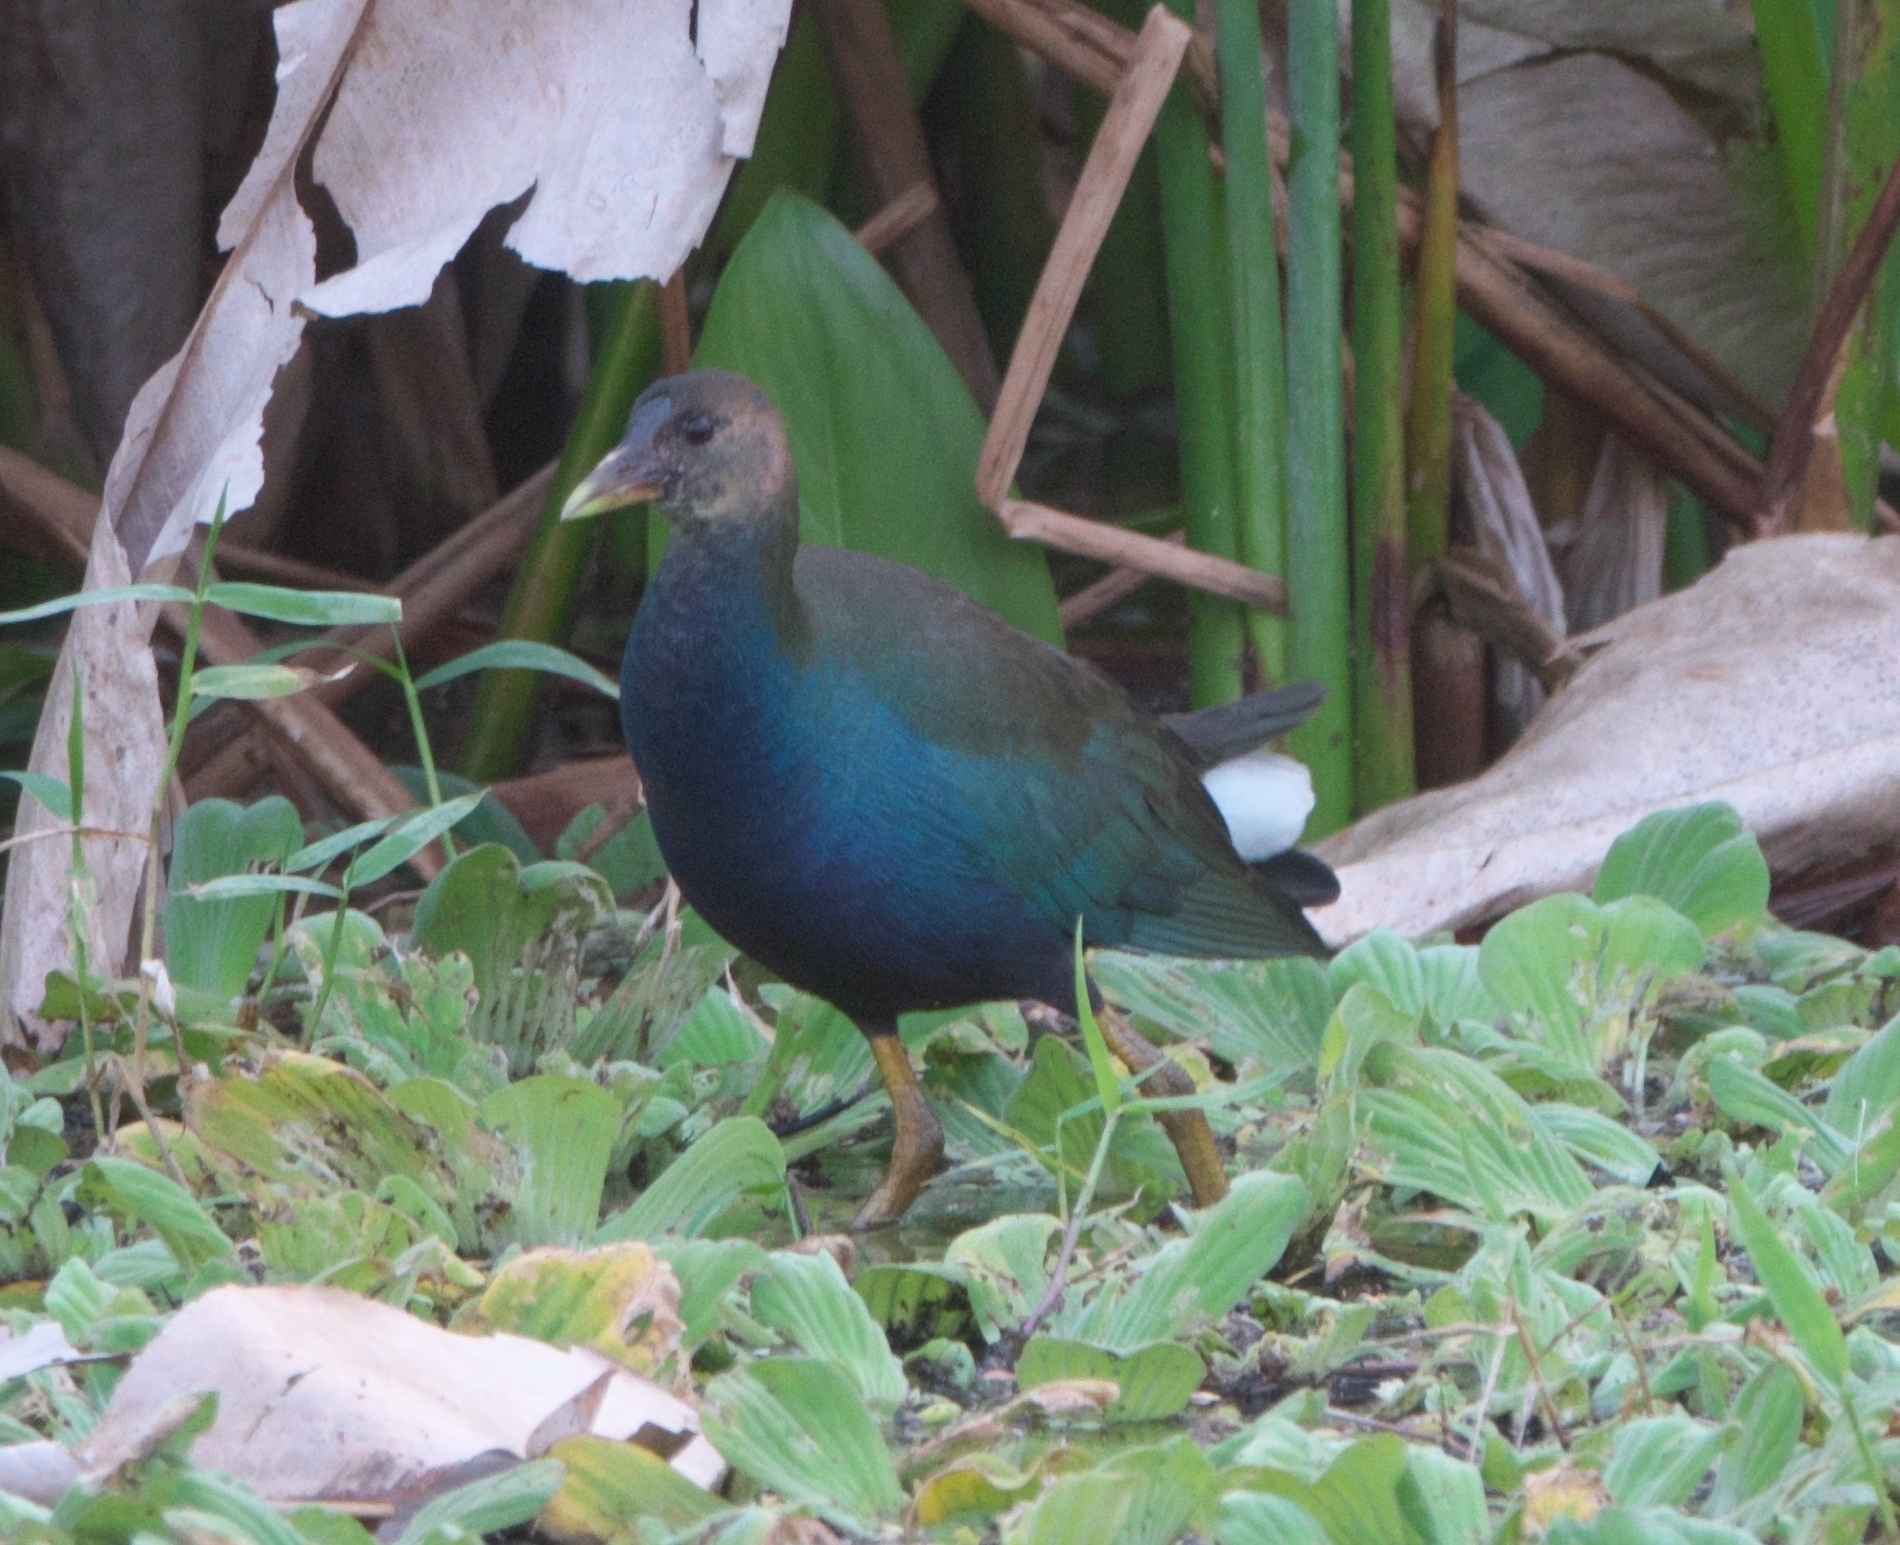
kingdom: Animalia
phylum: Chordata
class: Aves
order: Gruiformes
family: Rallidae
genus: Porphyrio
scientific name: Porphyrio martinica
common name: Purple gallinule
